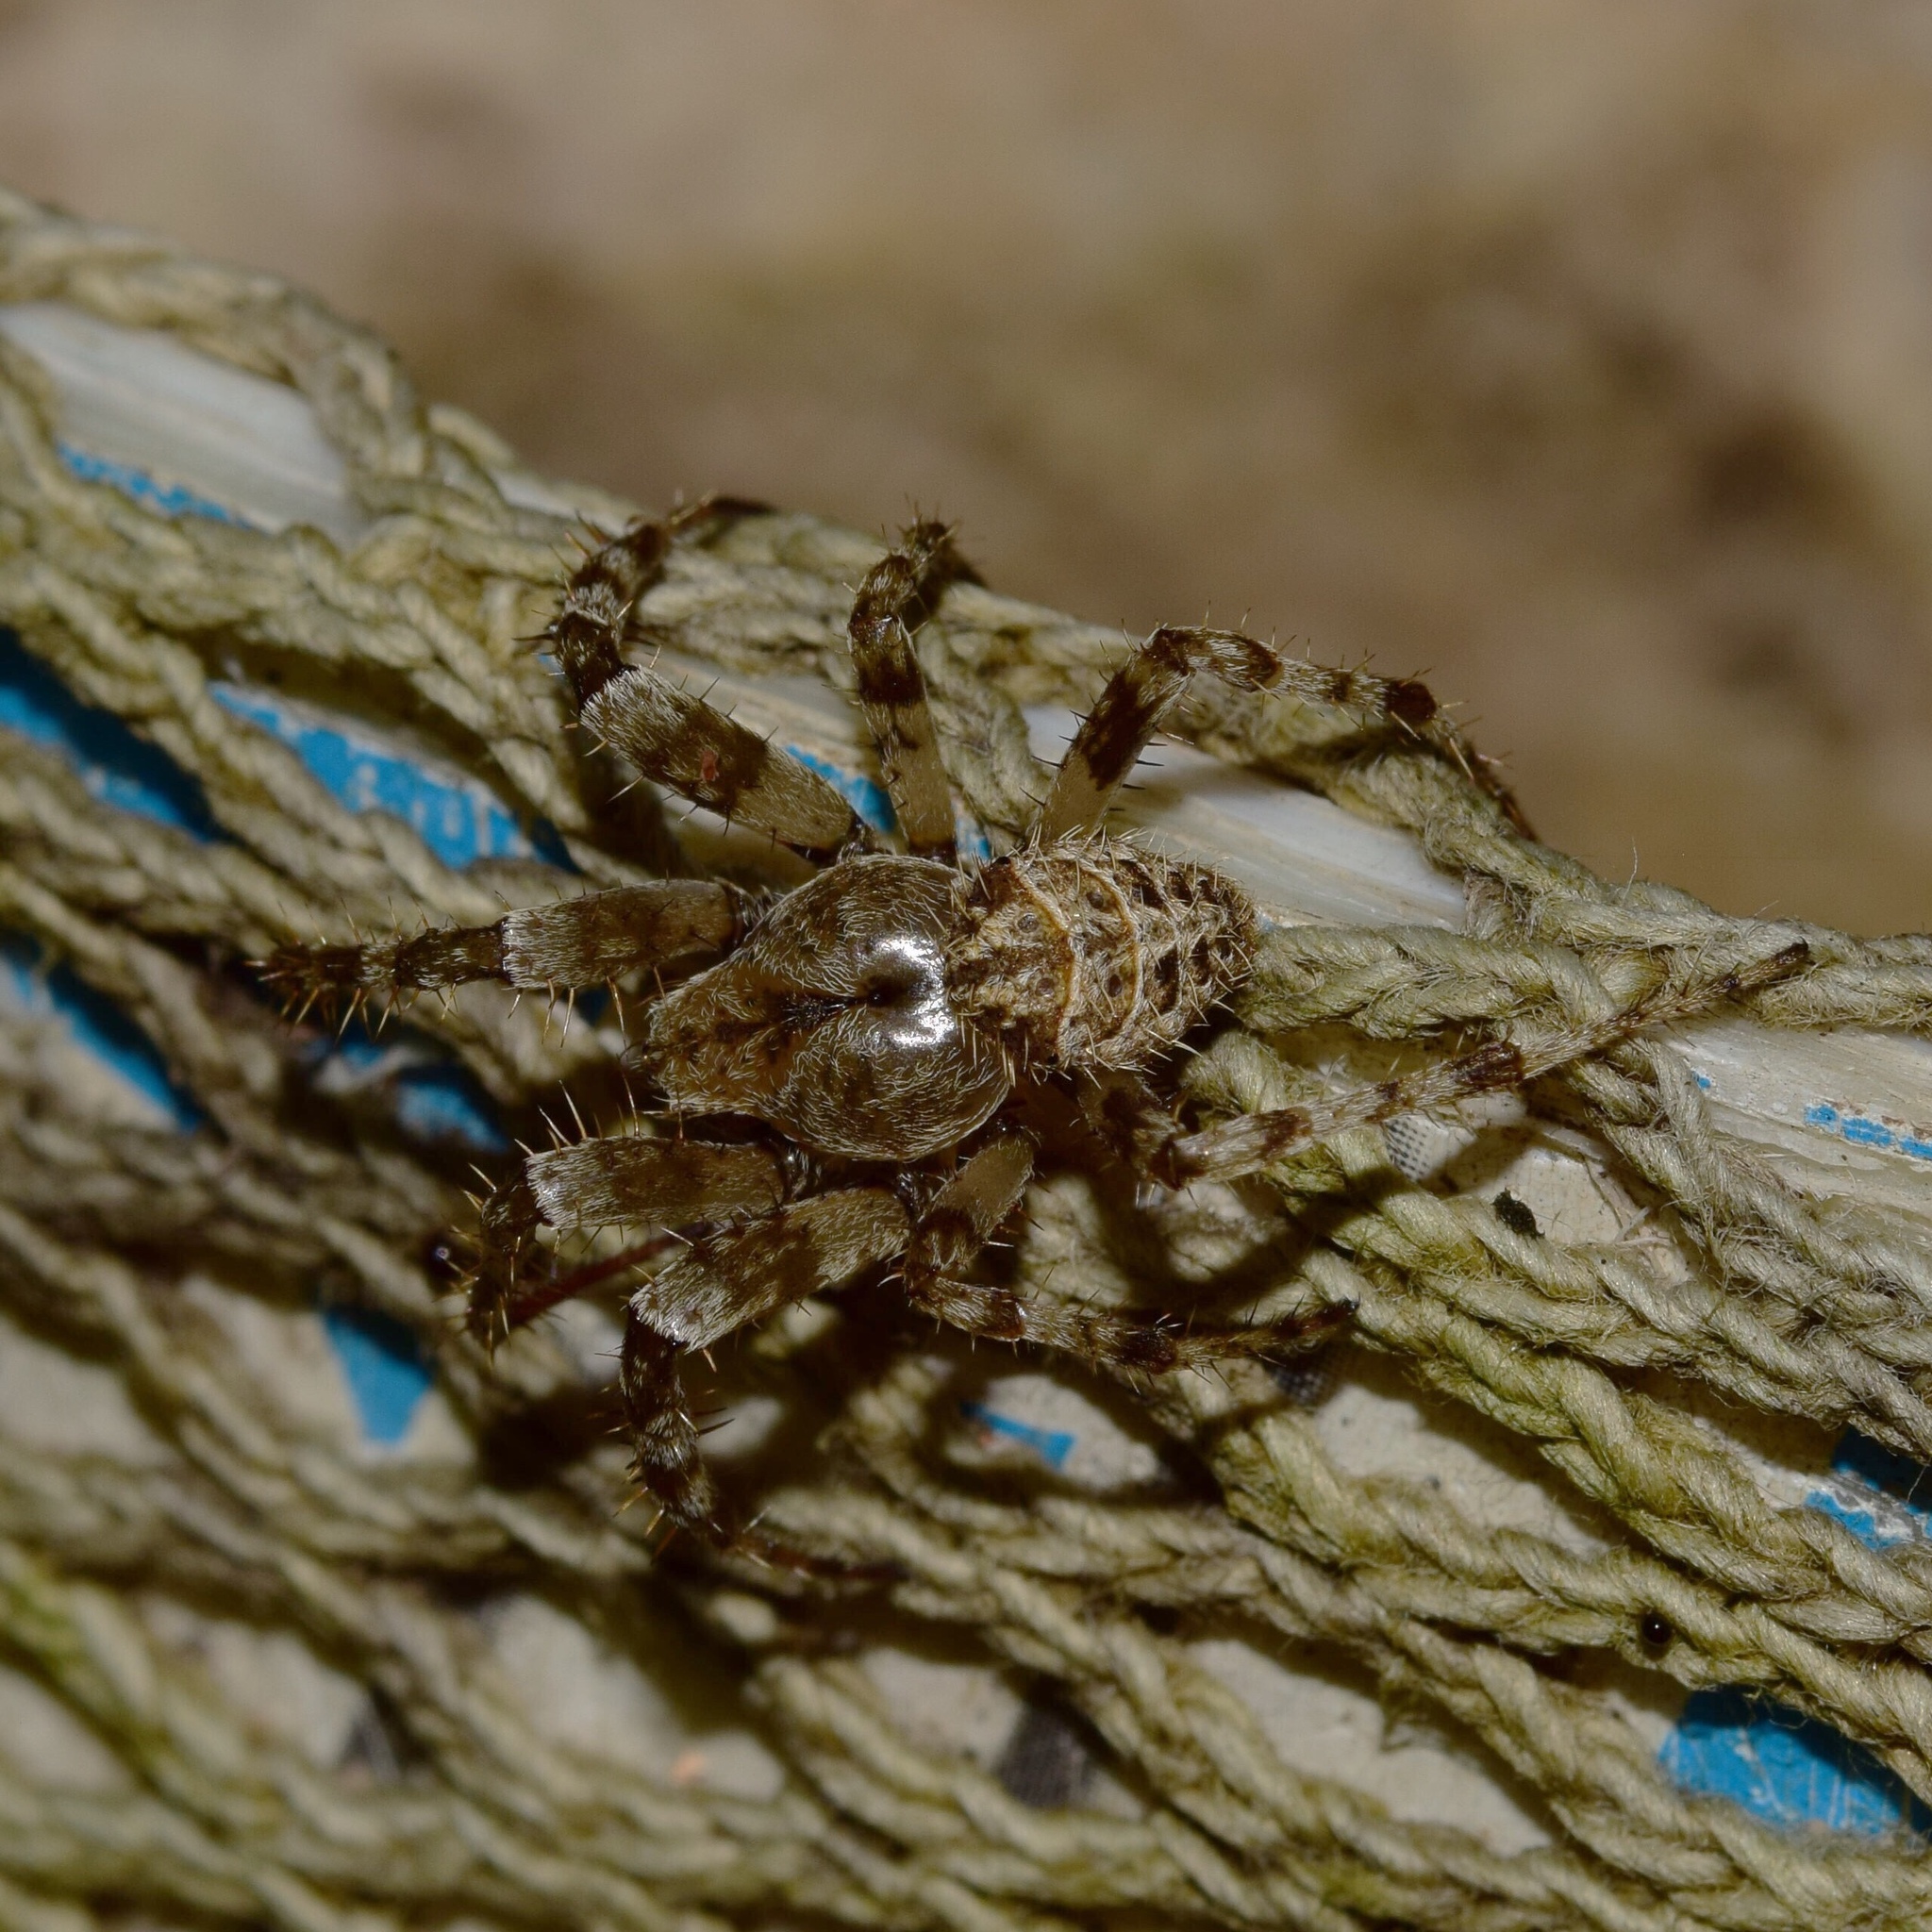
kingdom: Animalia
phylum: Arthropoda
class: Arachnida
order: Araneae
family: Araneidae
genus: Pararaneus
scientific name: Pararaneus perforatus
